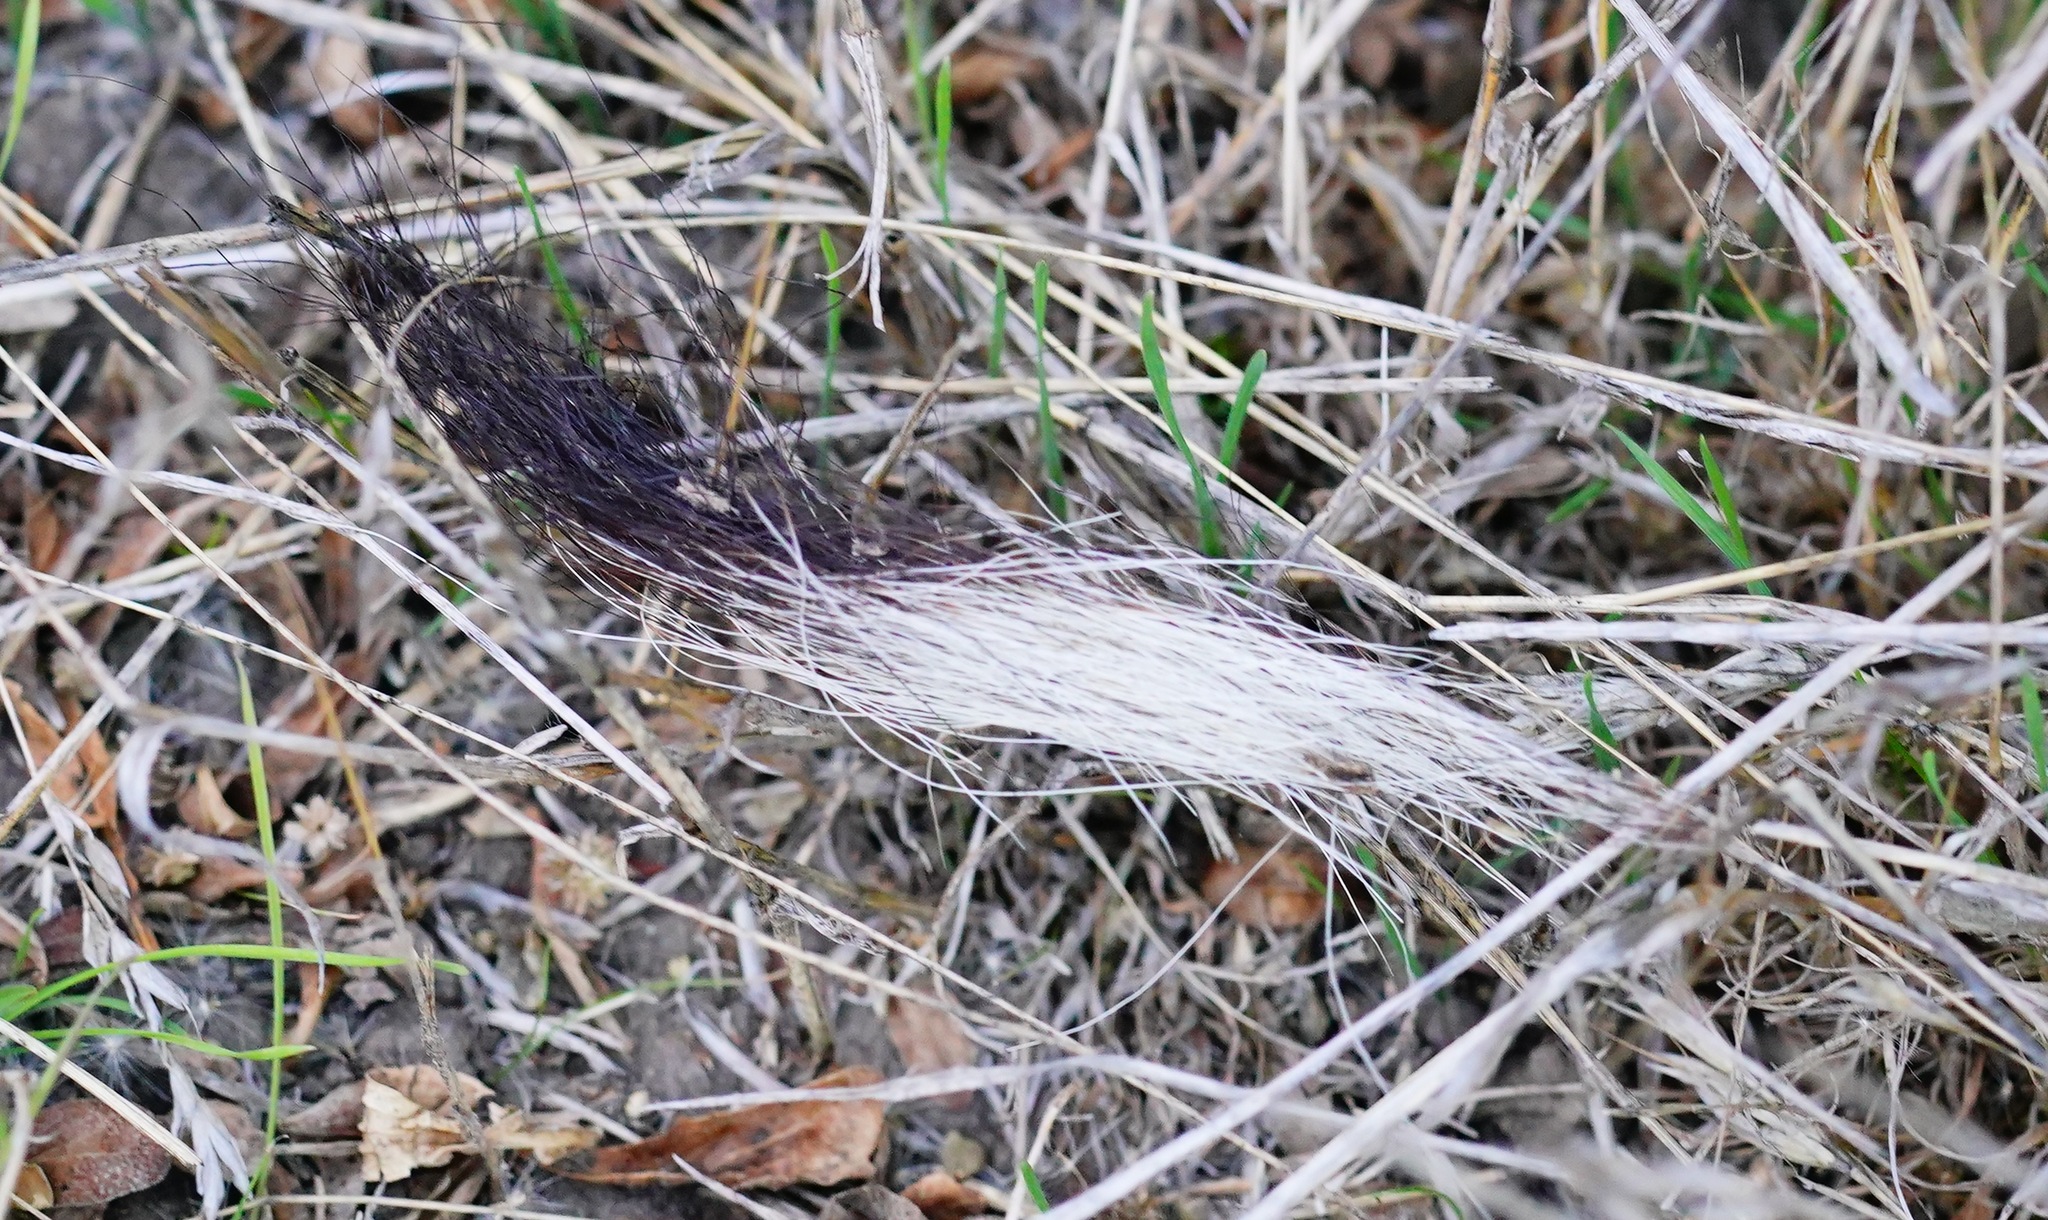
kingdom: Animalia
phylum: Chordata
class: Mammalia
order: Carnivora
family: Mephitidae
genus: Mephitis
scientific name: Mephitis mephitis
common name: Striped skunk
